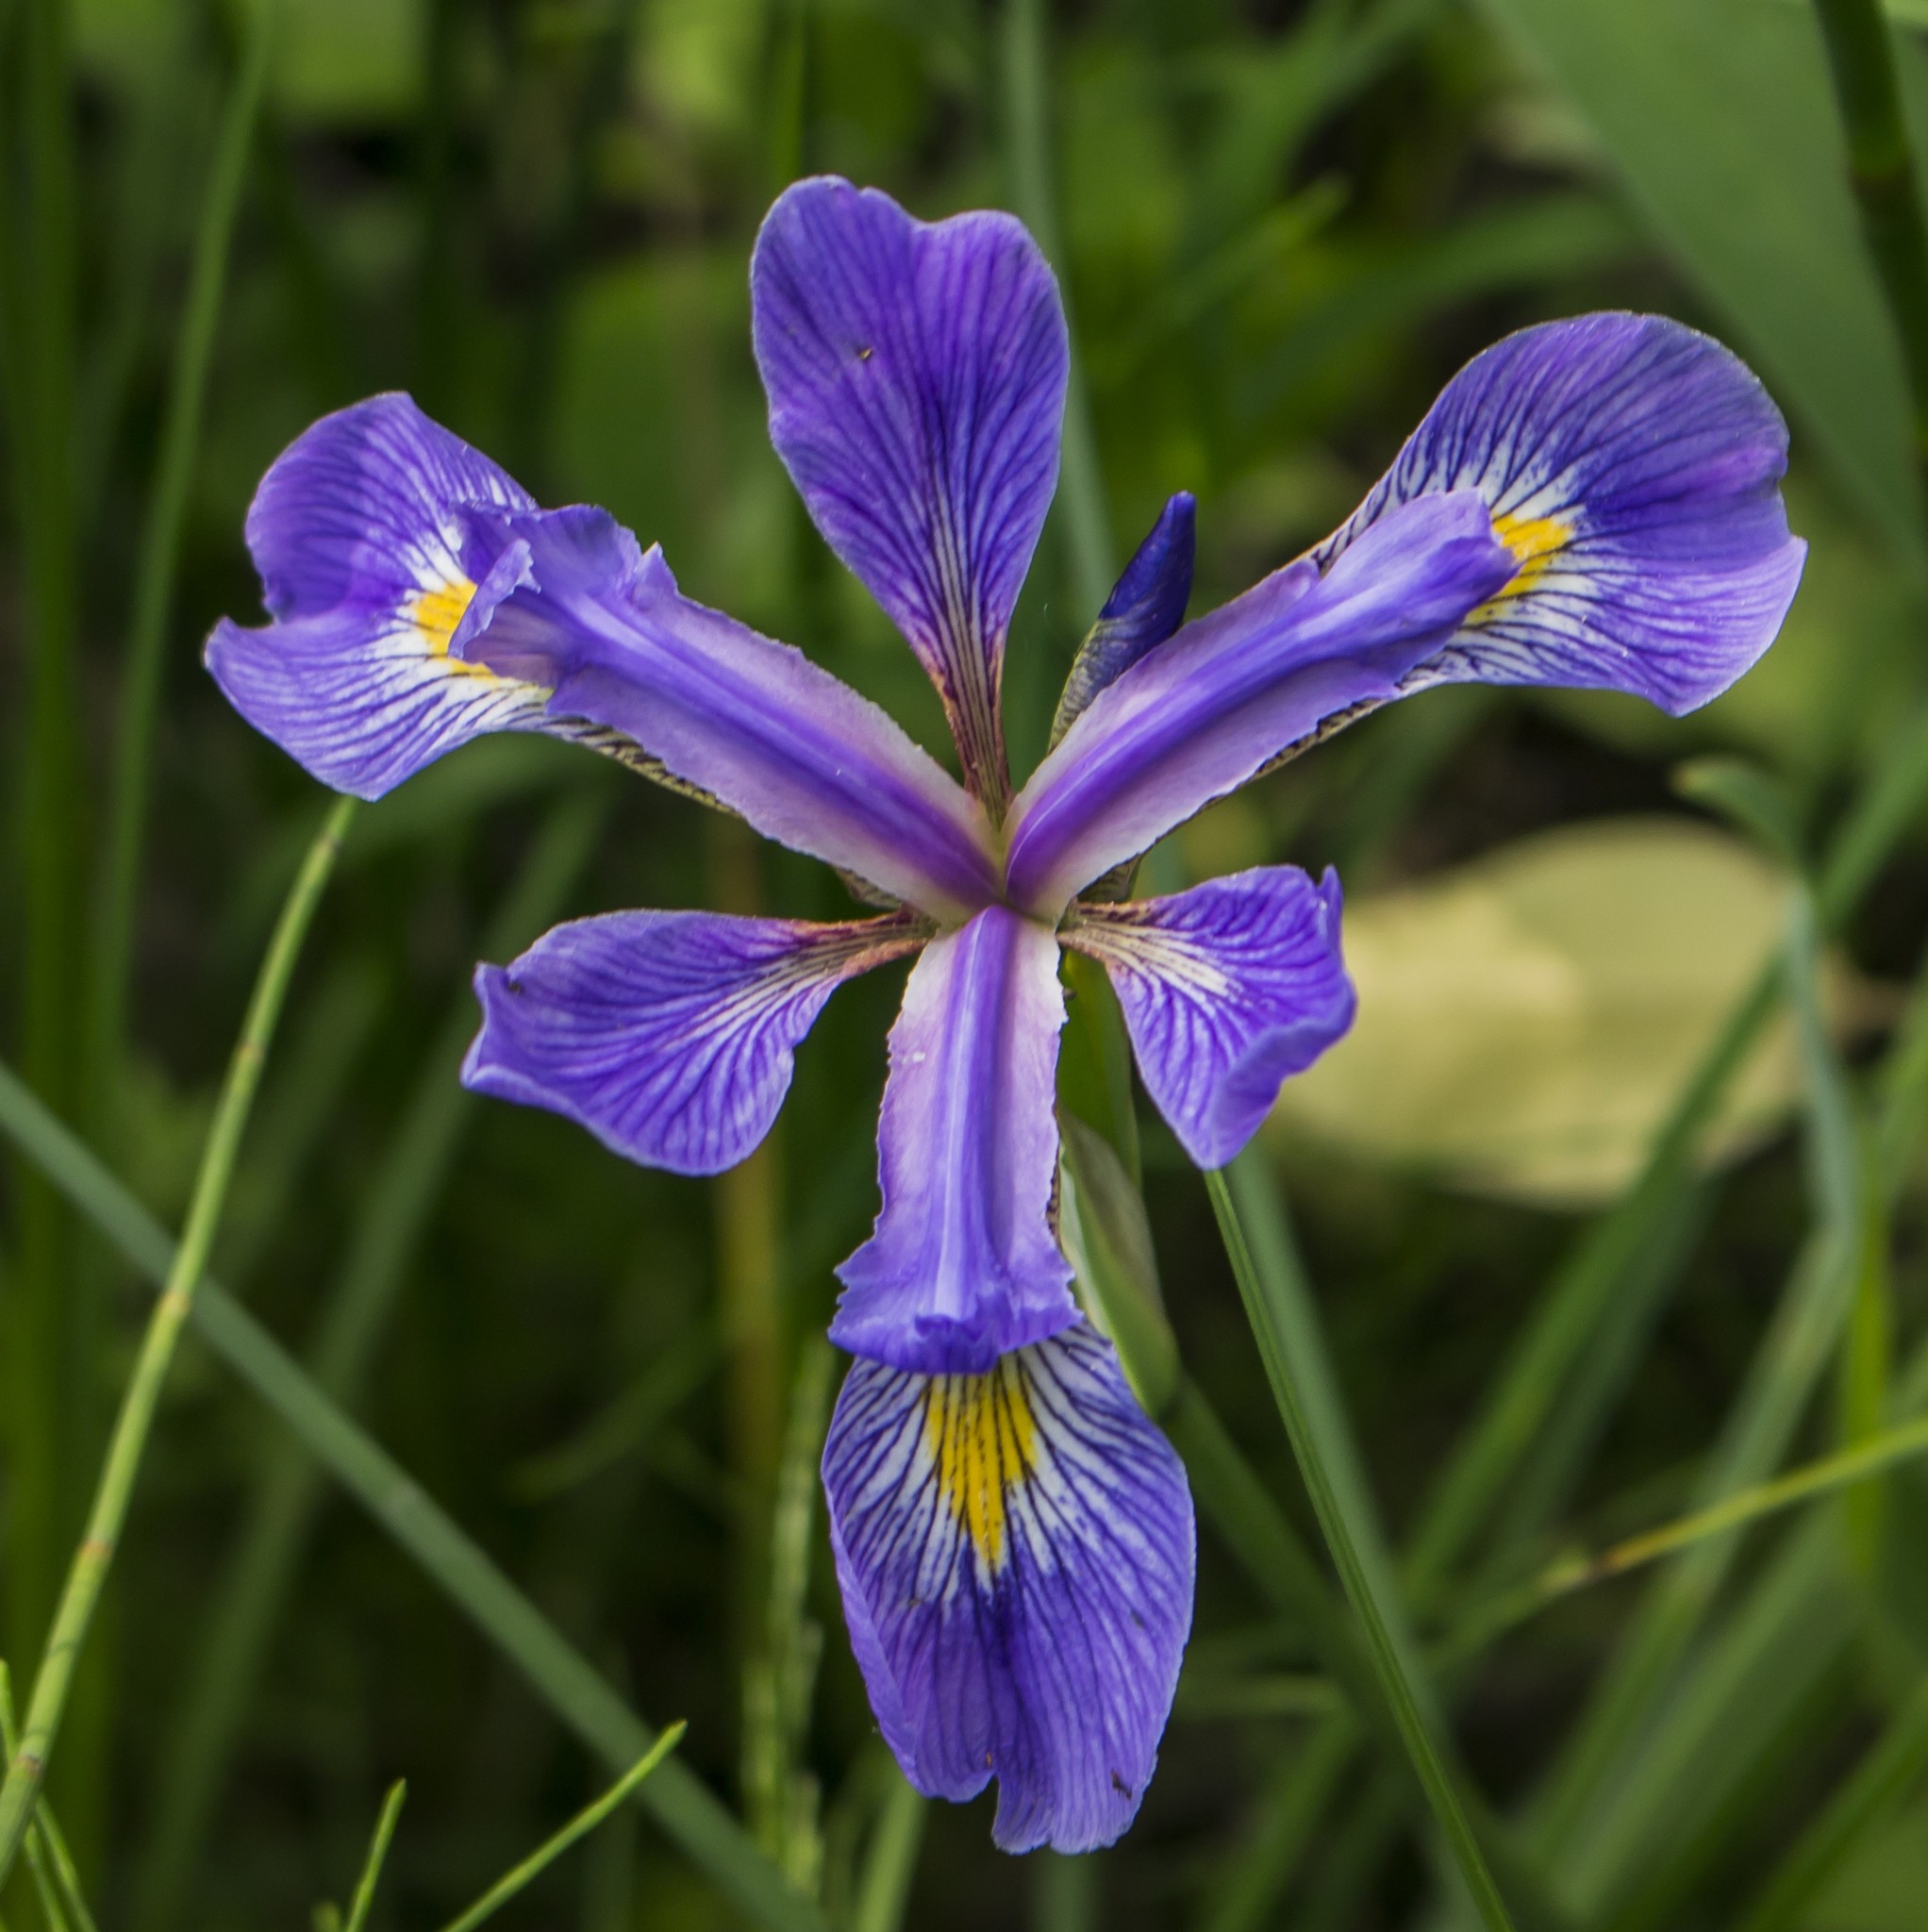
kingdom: Plantae
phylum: Tracheophyta
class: Liliopsida
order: Asparagales
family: Iridaceae
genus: Iris
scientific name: Iris virginica
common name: Southern blue flag
